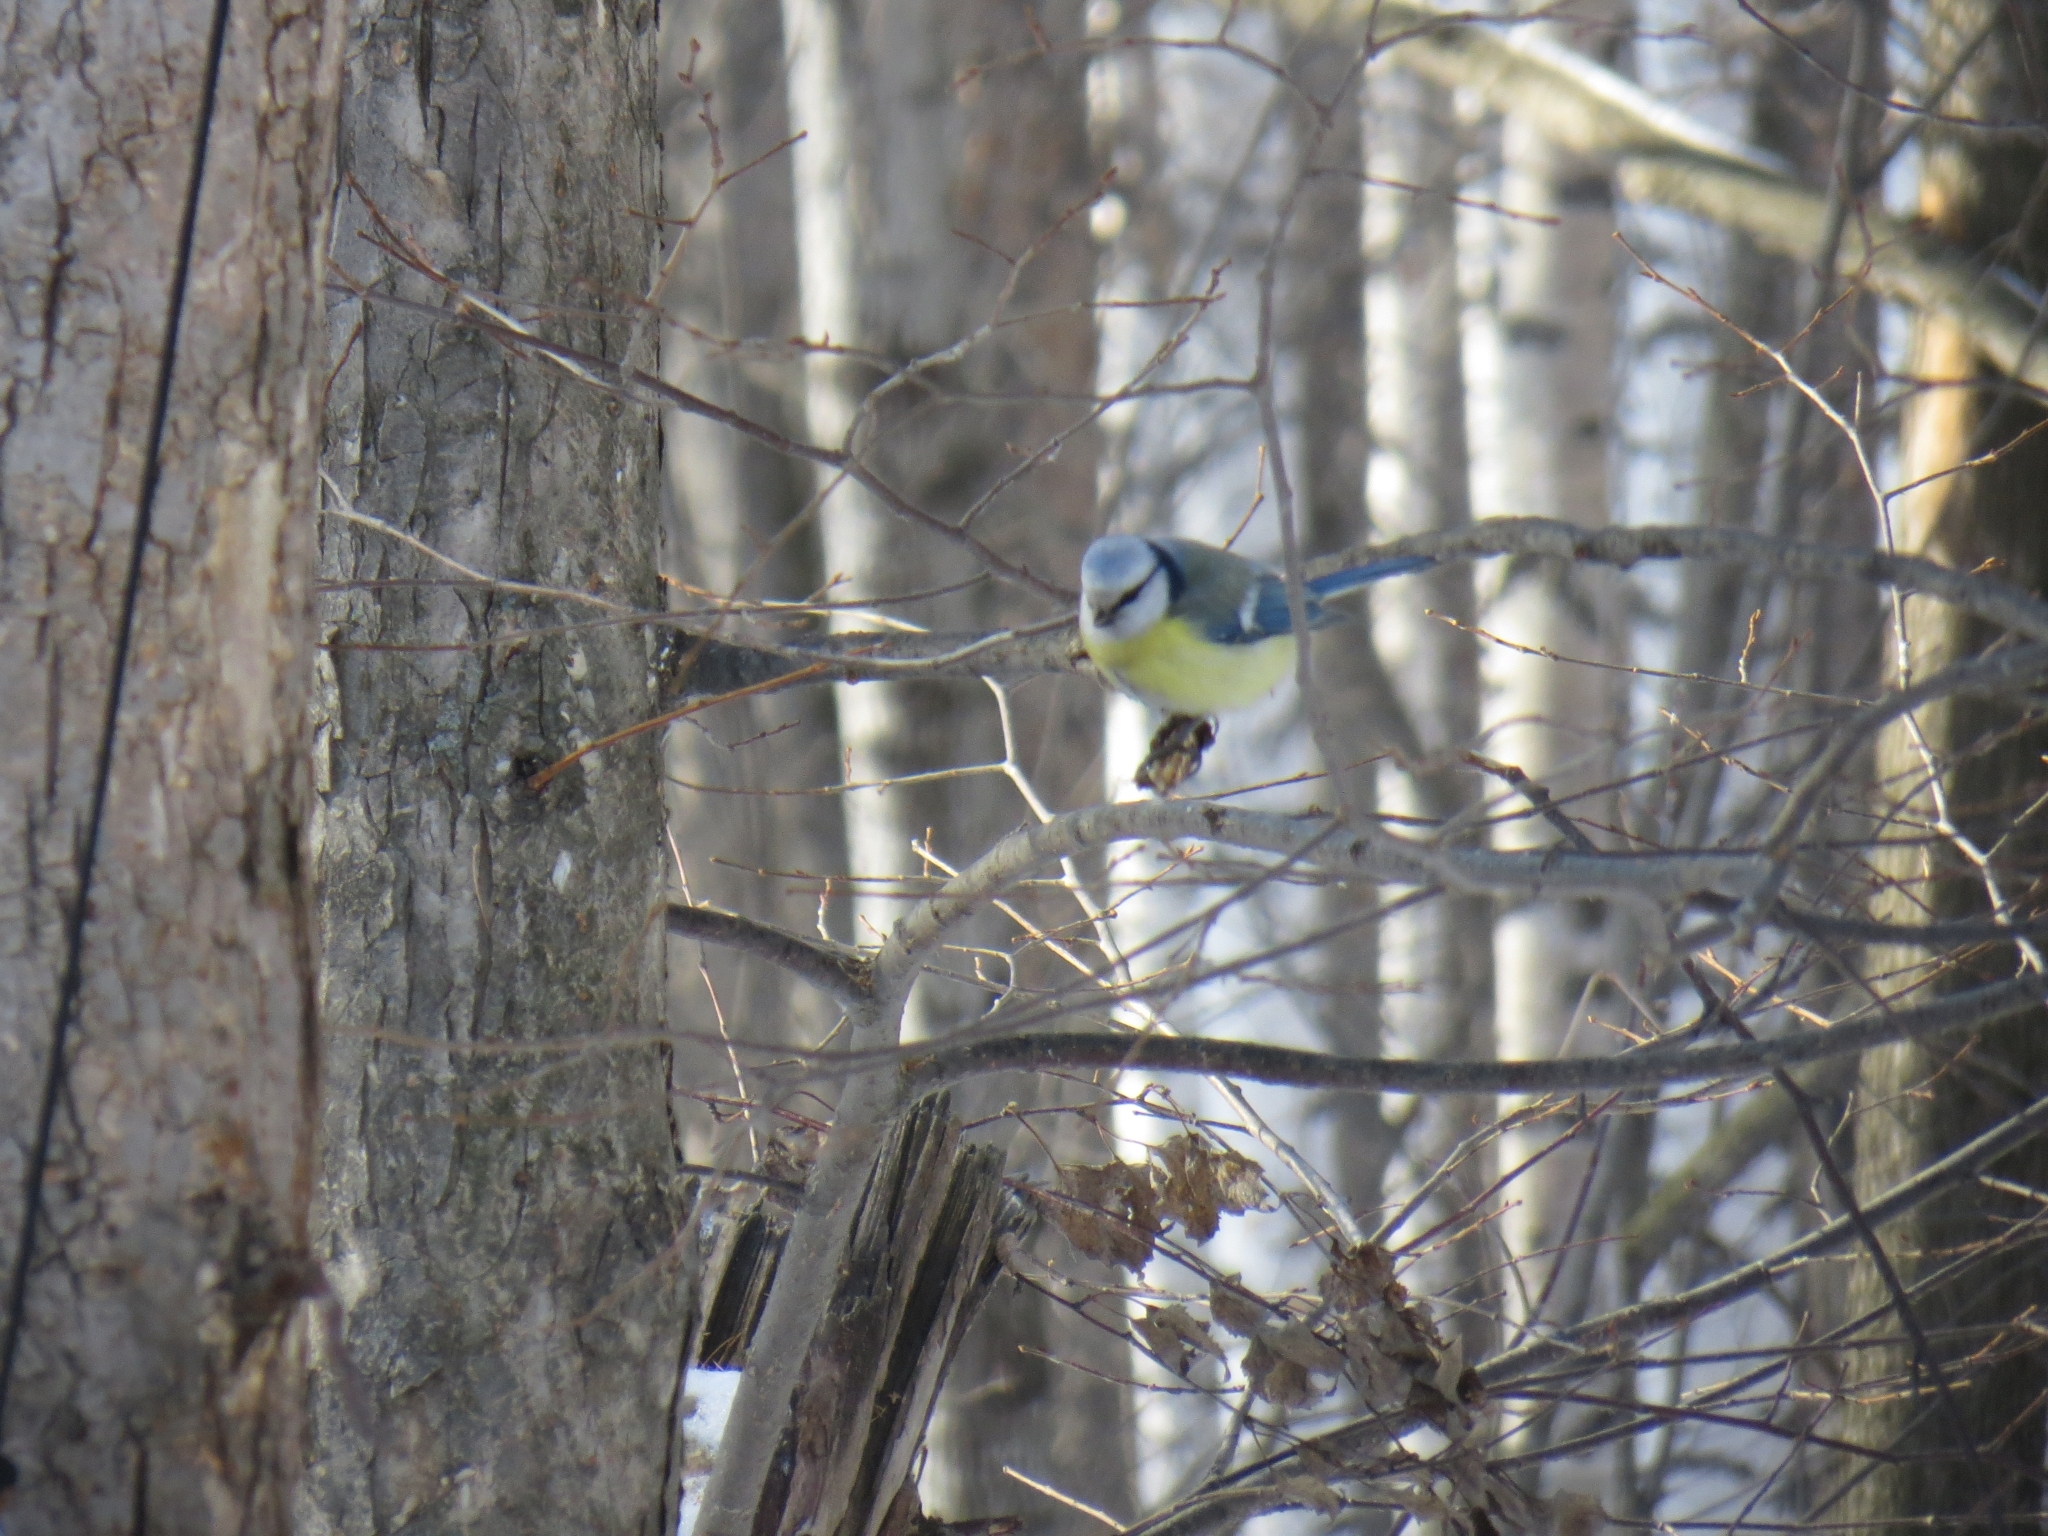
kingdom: Animalia
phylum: Chordata
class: Aves
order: Passeriformes
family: Paridae
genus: Cyanistes
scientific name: Cyanistes caeruleus
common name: Eurasian blue tit
